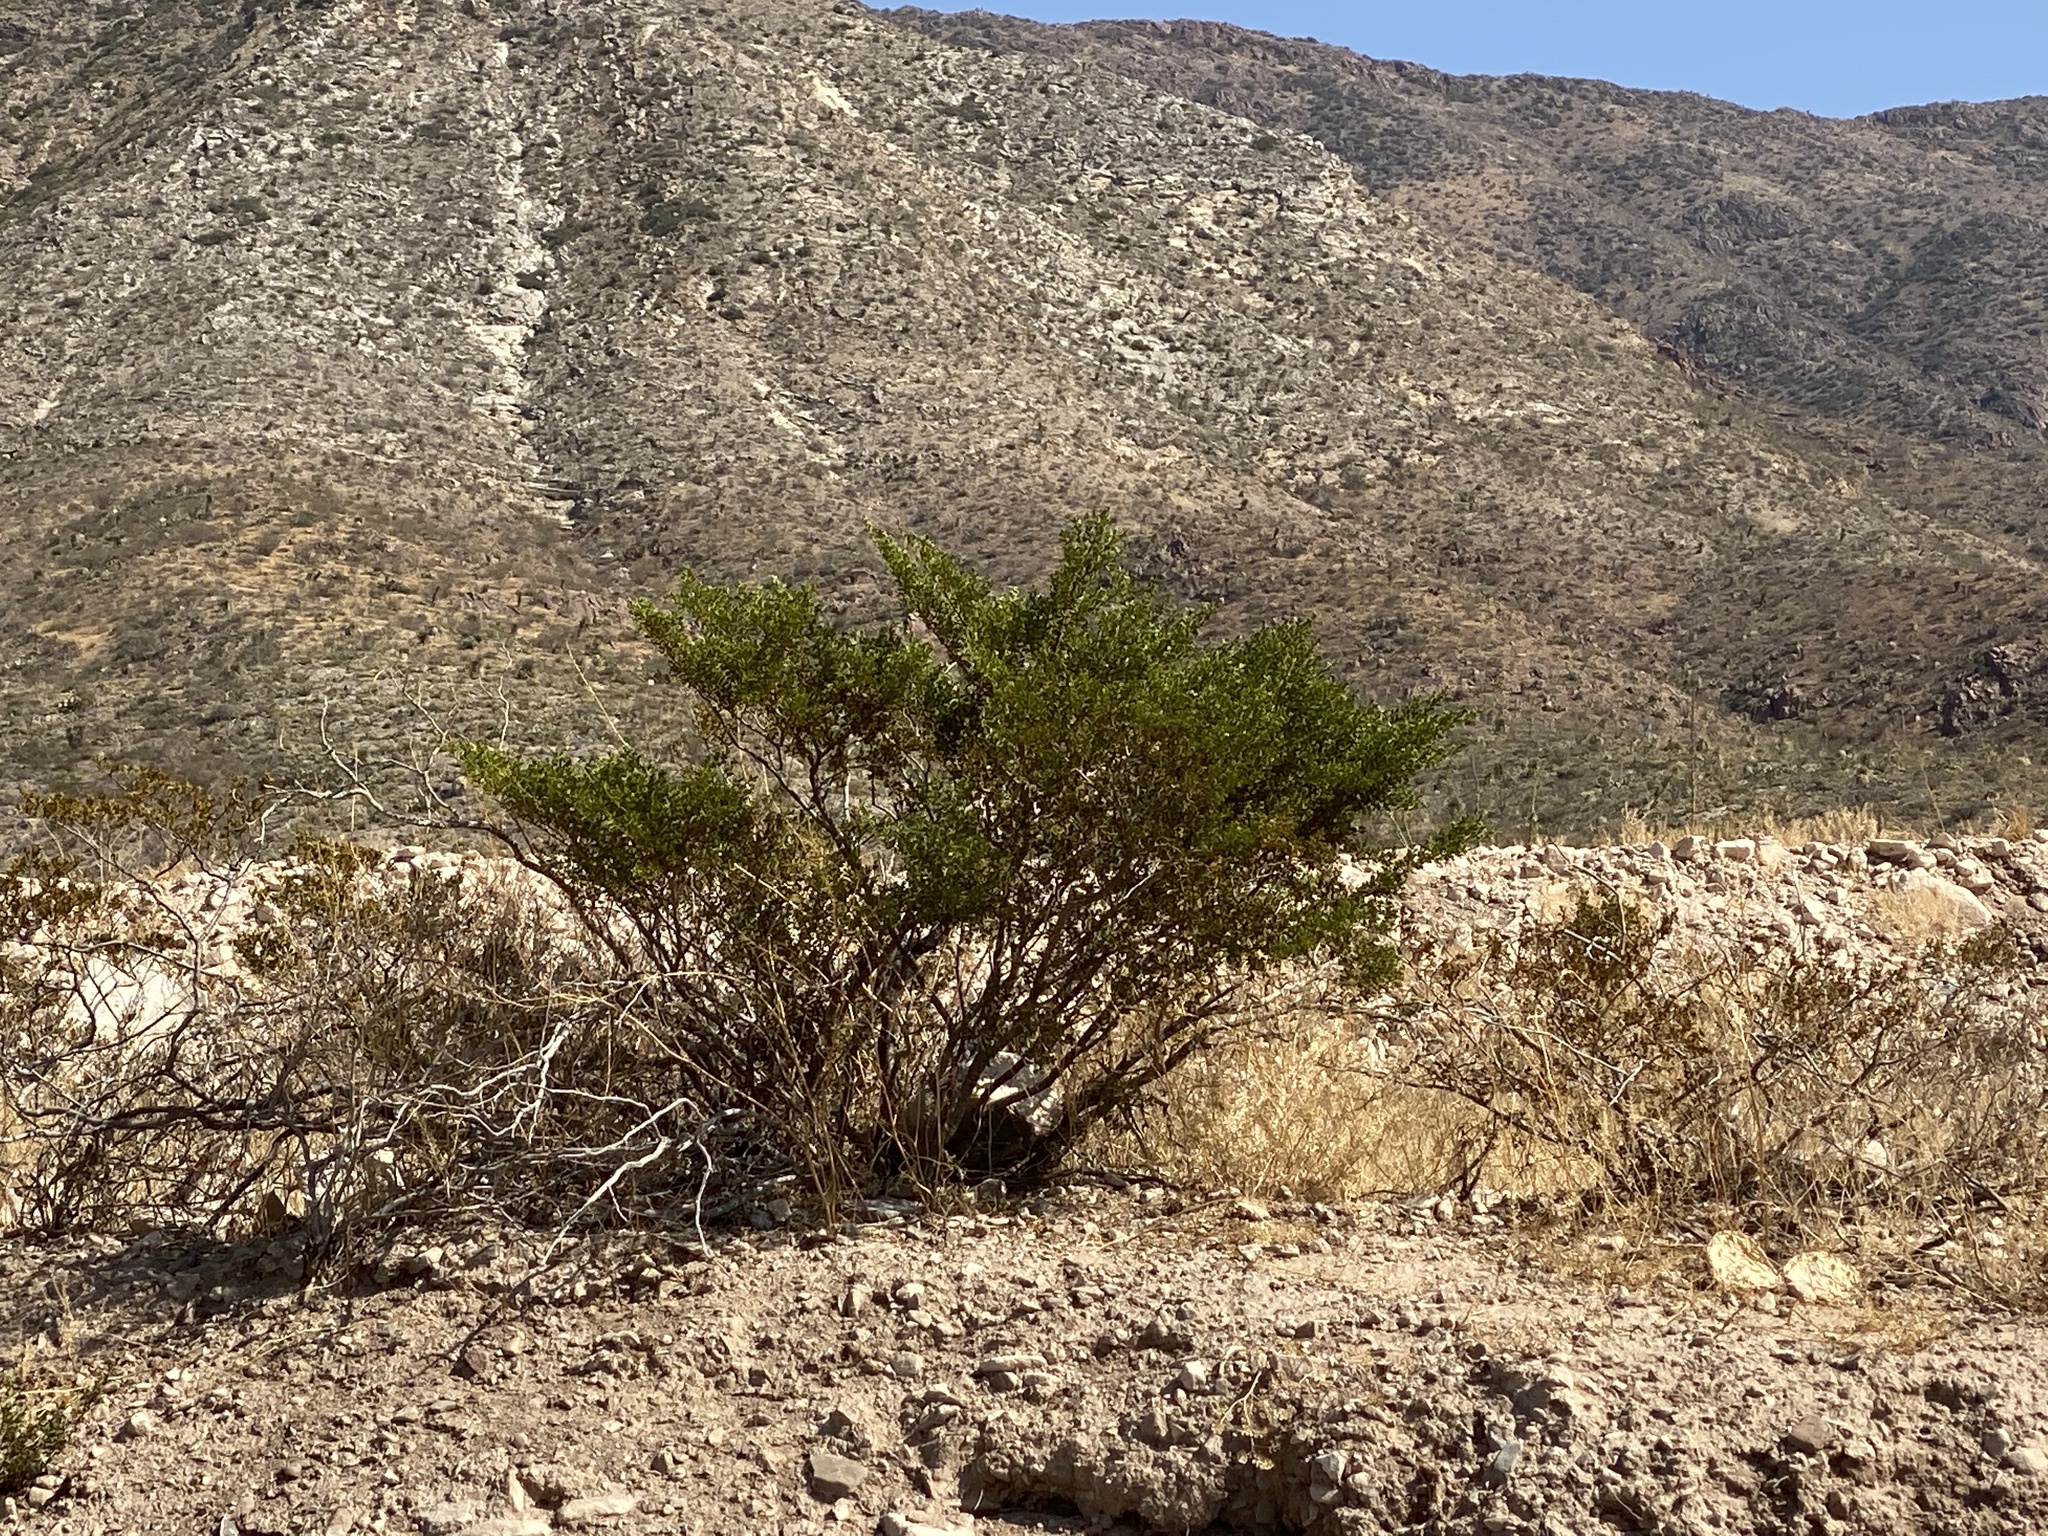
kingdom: Plantae
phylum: Tracheophyta
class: Magnoliopsida
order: Zygophyllales
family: Zygophyllaceae
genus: Larrea
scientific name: Larrea tridentata
